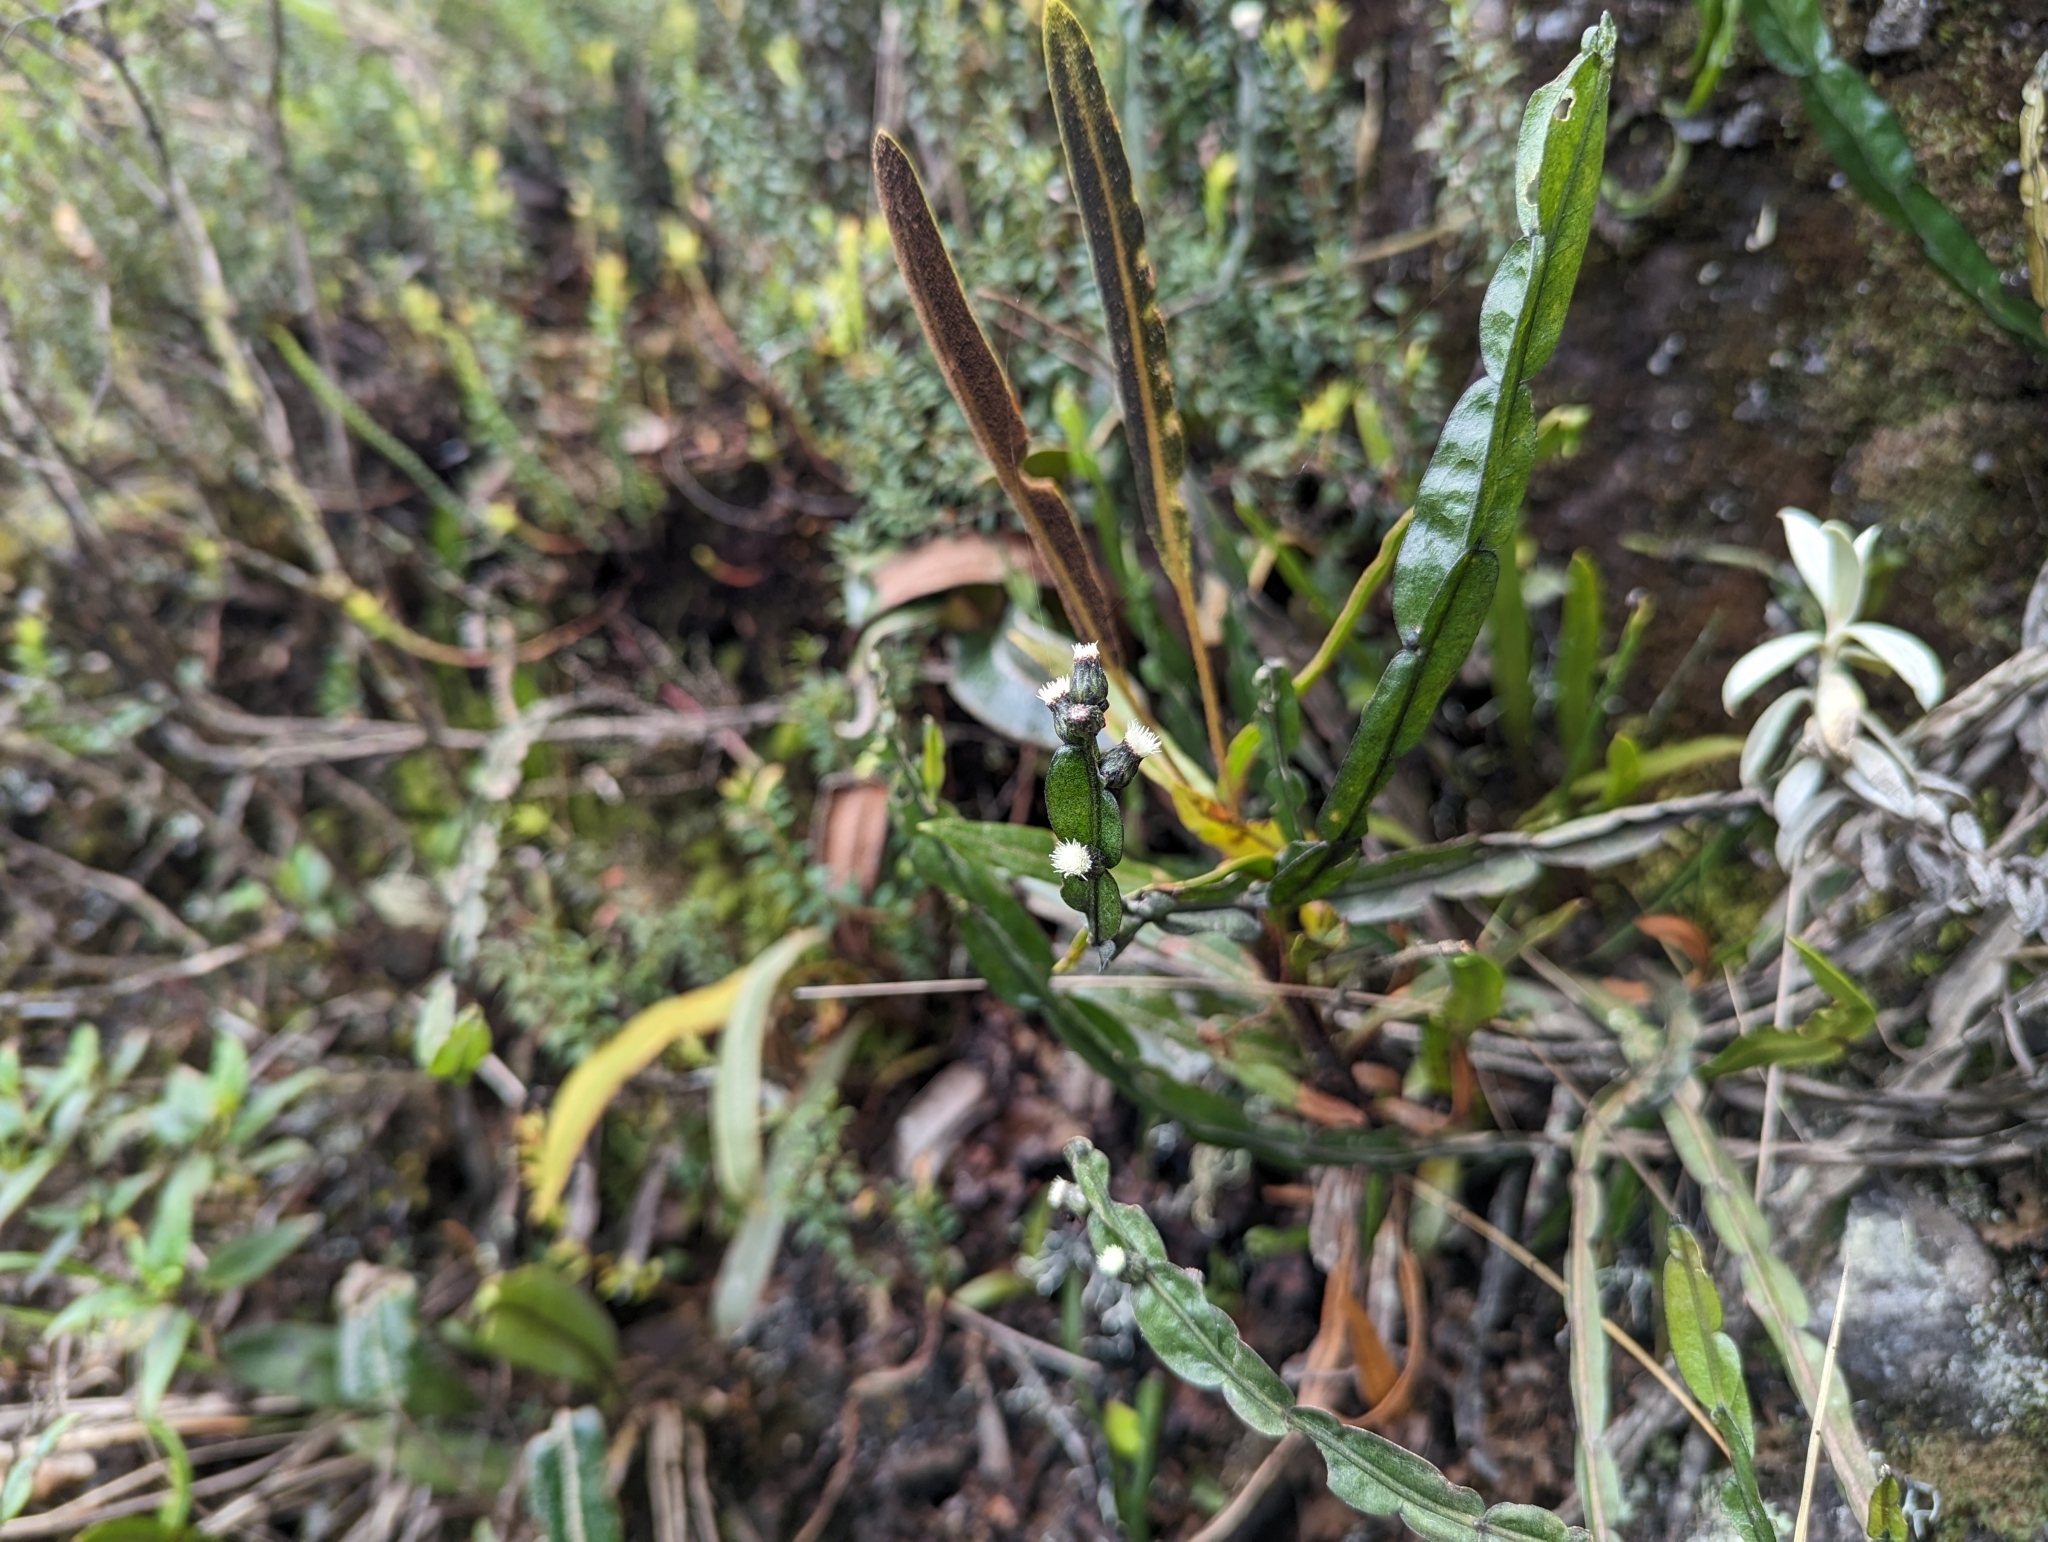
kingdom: Plantae
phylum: Tracheophyta
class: Magnoliopsida
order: Asterales
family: Asteraceae
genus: Baccharis
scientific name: Baccharis genistelloides
